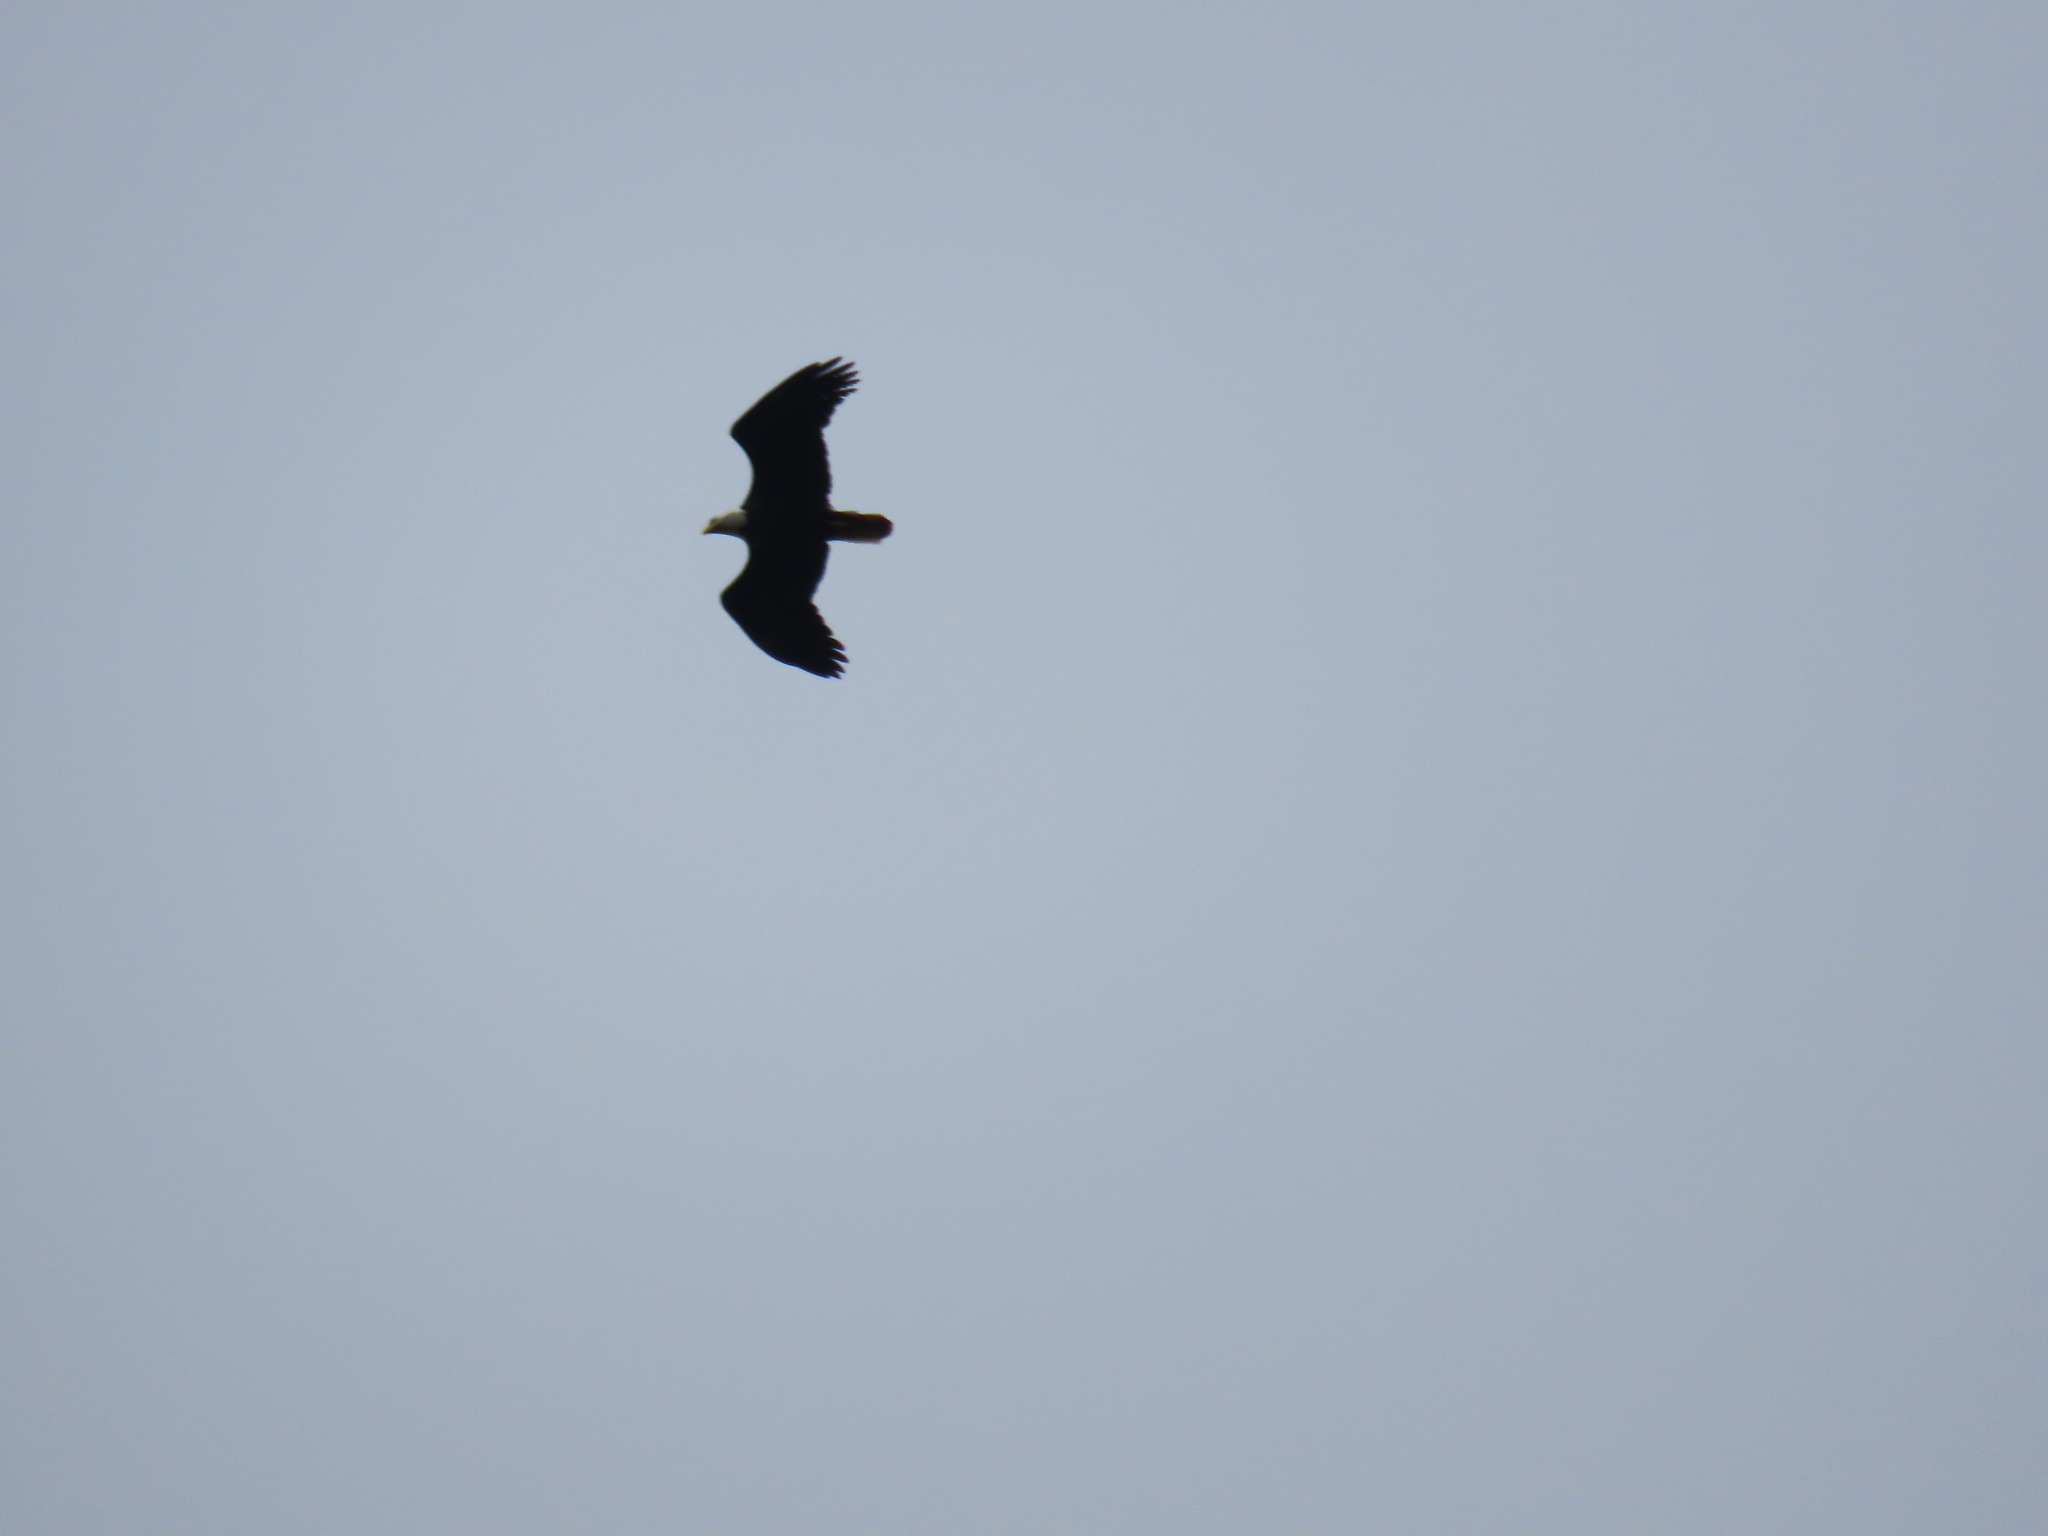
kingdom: Animalia
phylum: Chordata
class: Aves
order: Accipitriformes
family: Accipitridae
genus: Haliaeetus
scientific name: Haliaeetus leucocephalus
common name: Bald eagle
